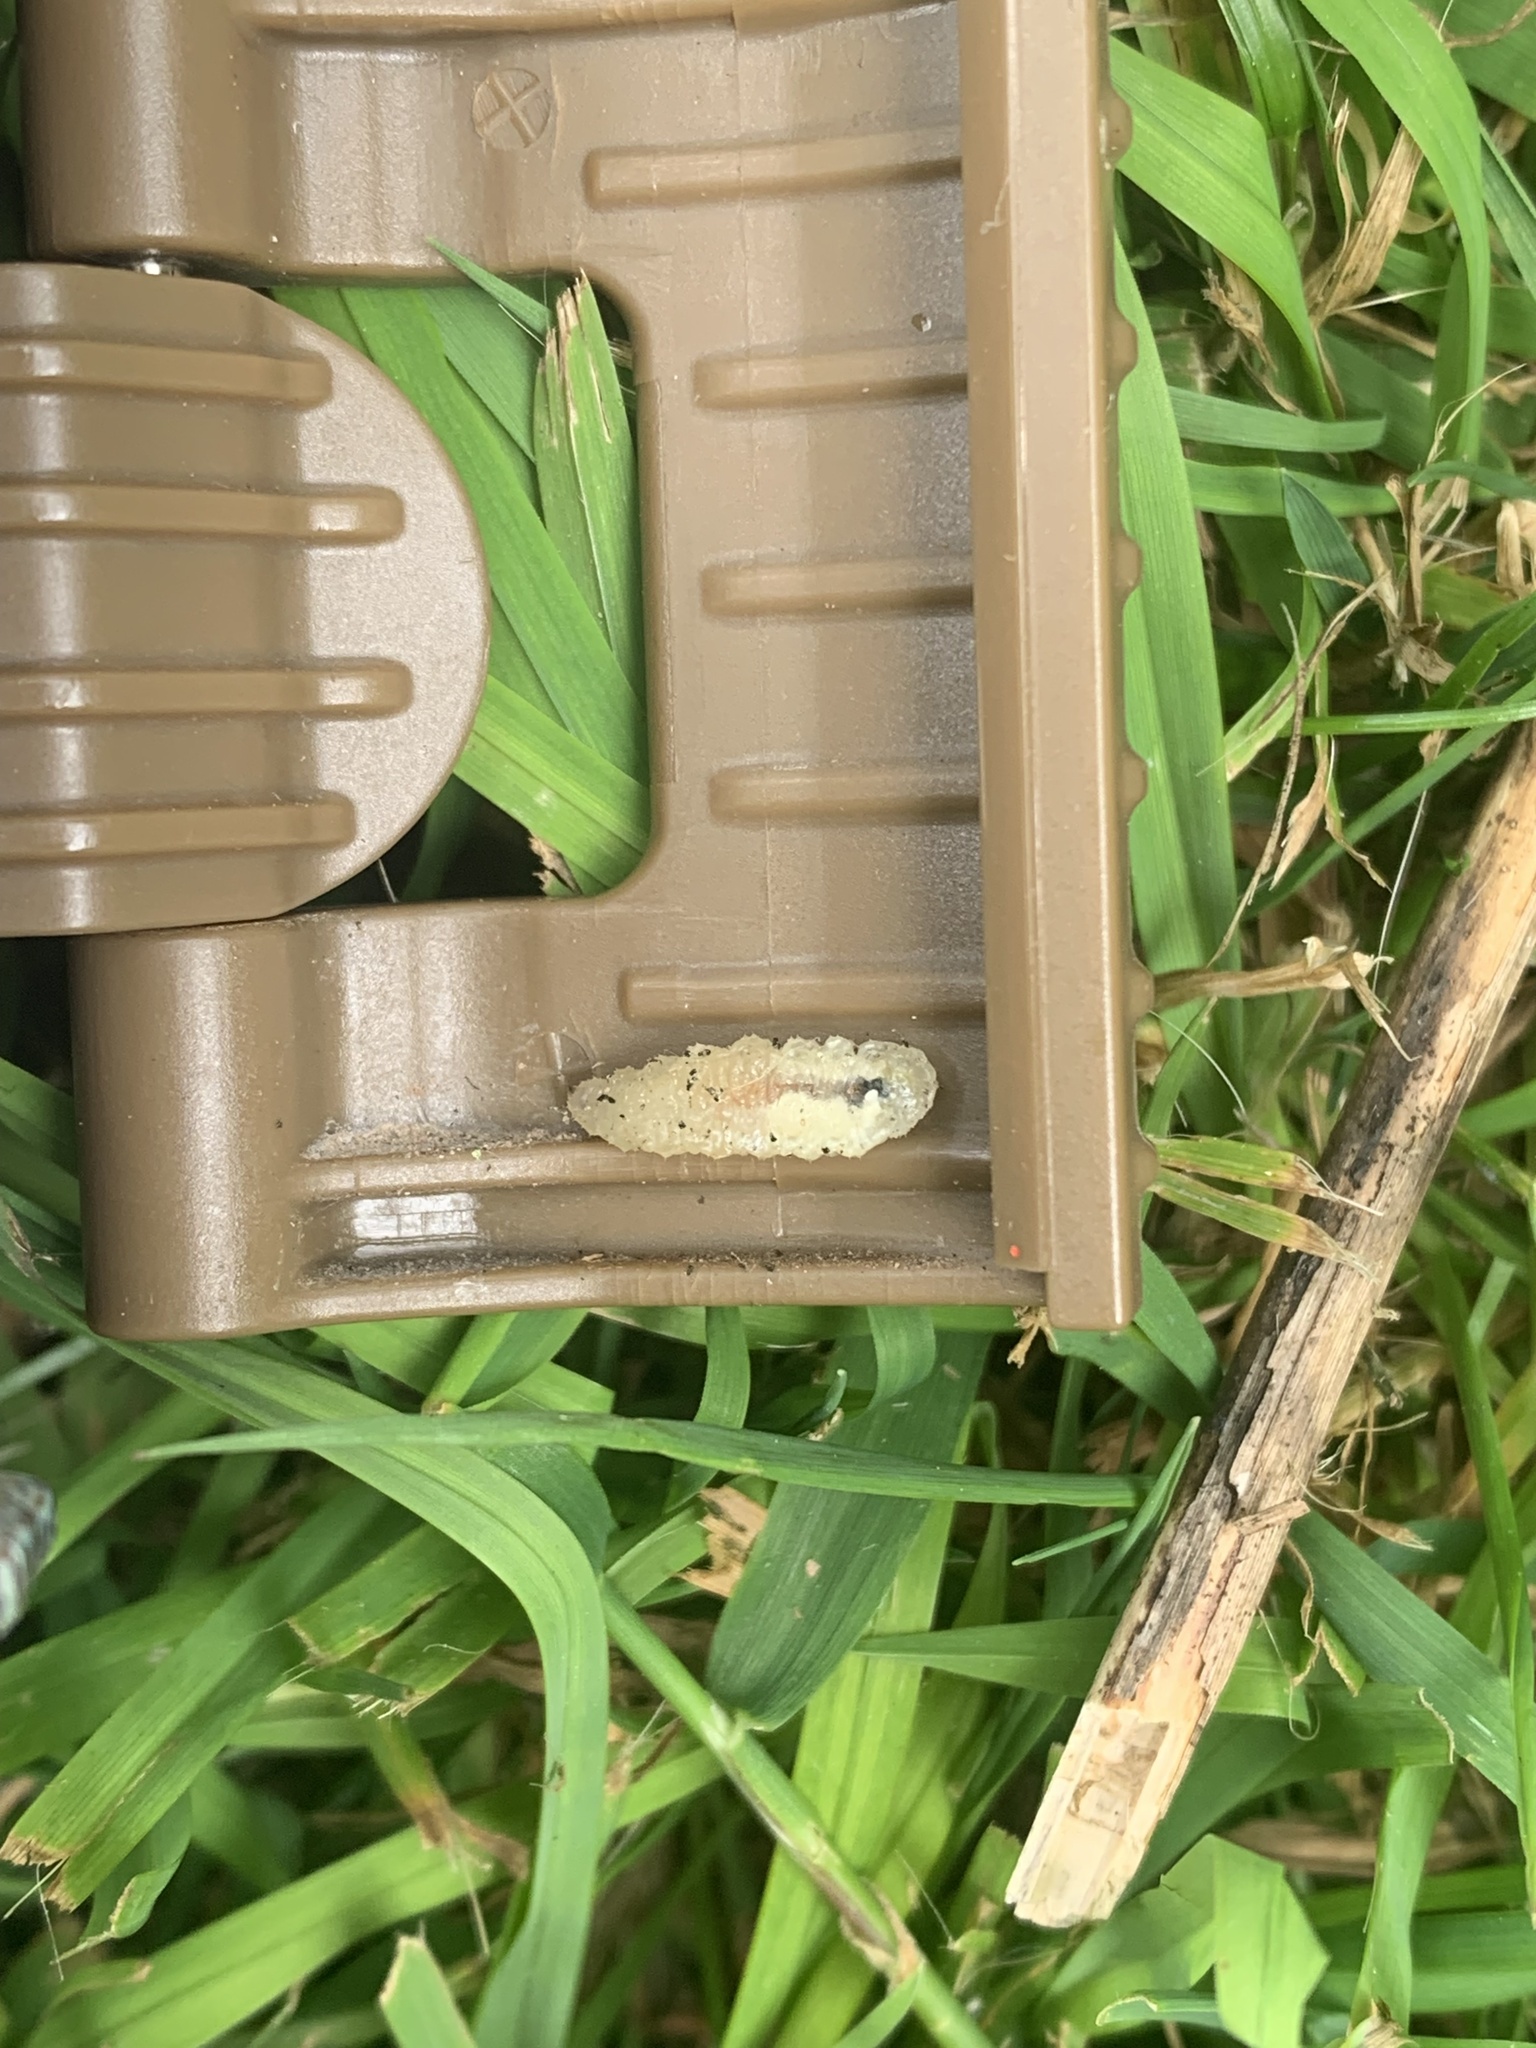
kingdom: Animalia
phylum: Arthropoda
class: Insecta
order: Diptera
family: Syrphidae
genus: Syrphus
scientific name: Syrphus
